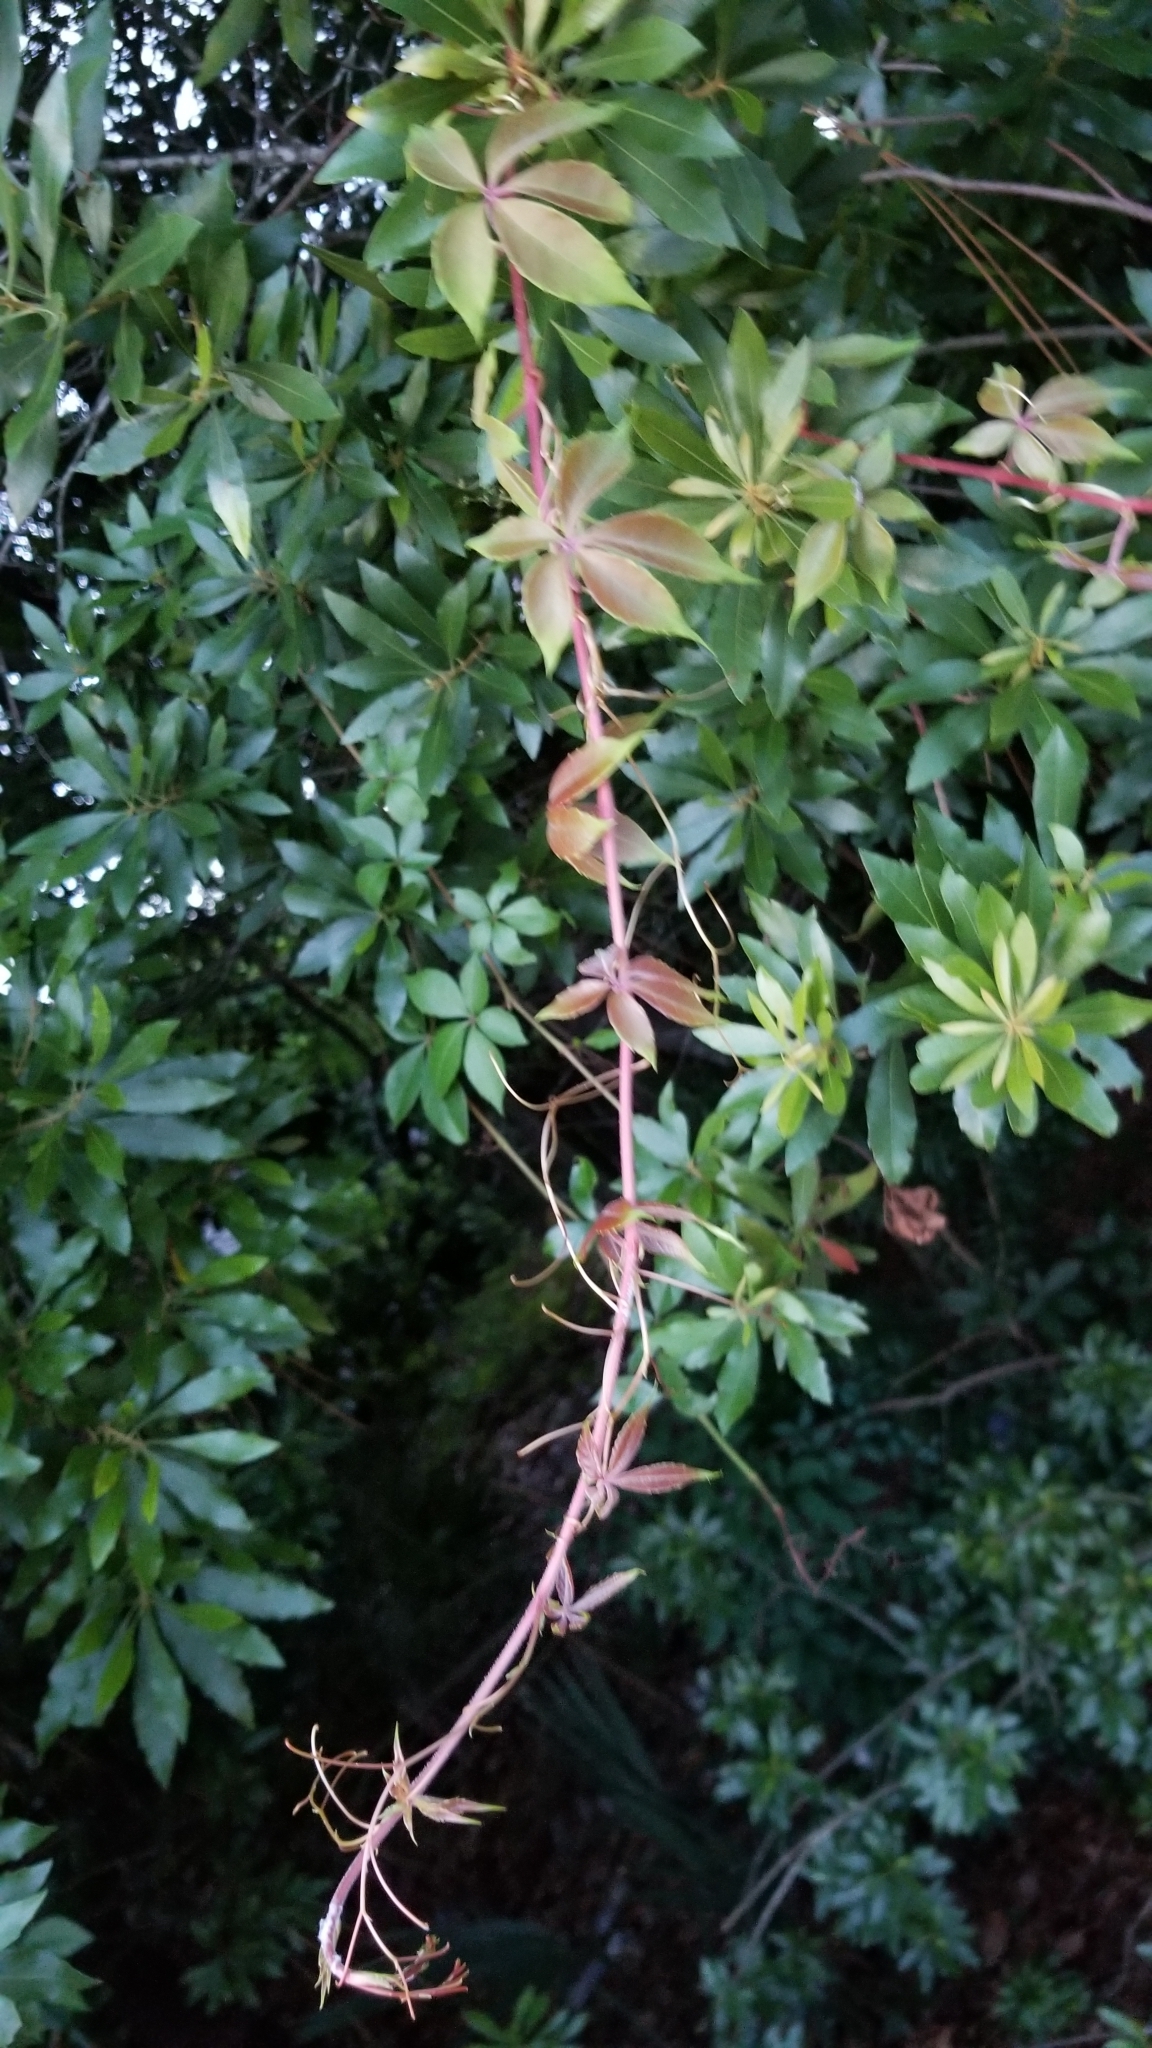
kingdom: Plantae
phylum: Tracheophyta
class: Magnoliopsida
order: Vitales
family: Vitaceae
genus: Parthenocissus
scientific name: Parthenocissus quinquefolia
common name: Virginia-creeper
